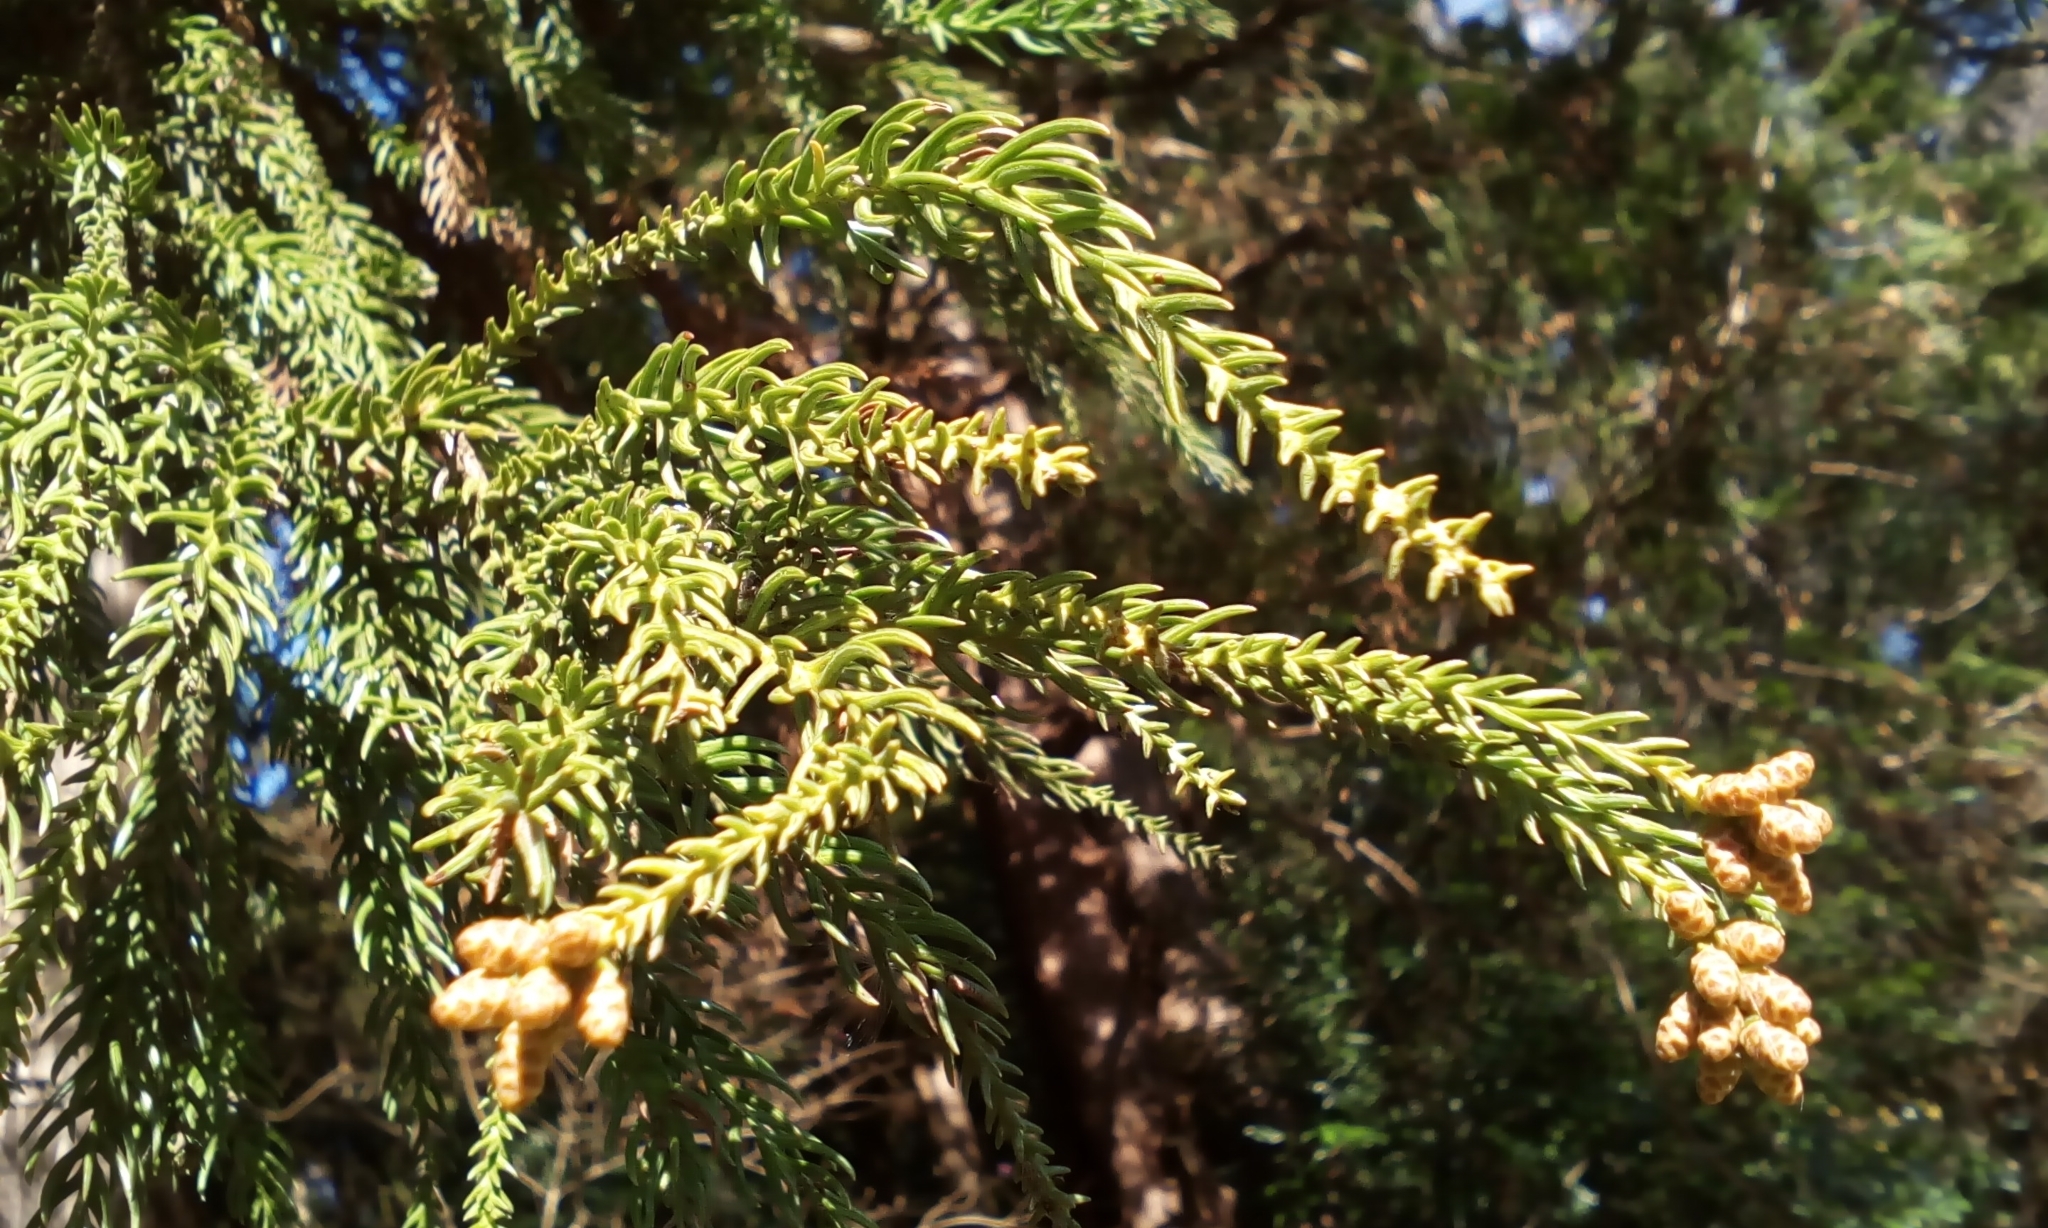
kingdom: Plantae
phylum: Tracheophyta
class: Pinopsida
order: Pinales
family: Cupressaceae
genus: Cryptomeria
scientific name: Cryptomeria japonica
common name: Japanese cedar
